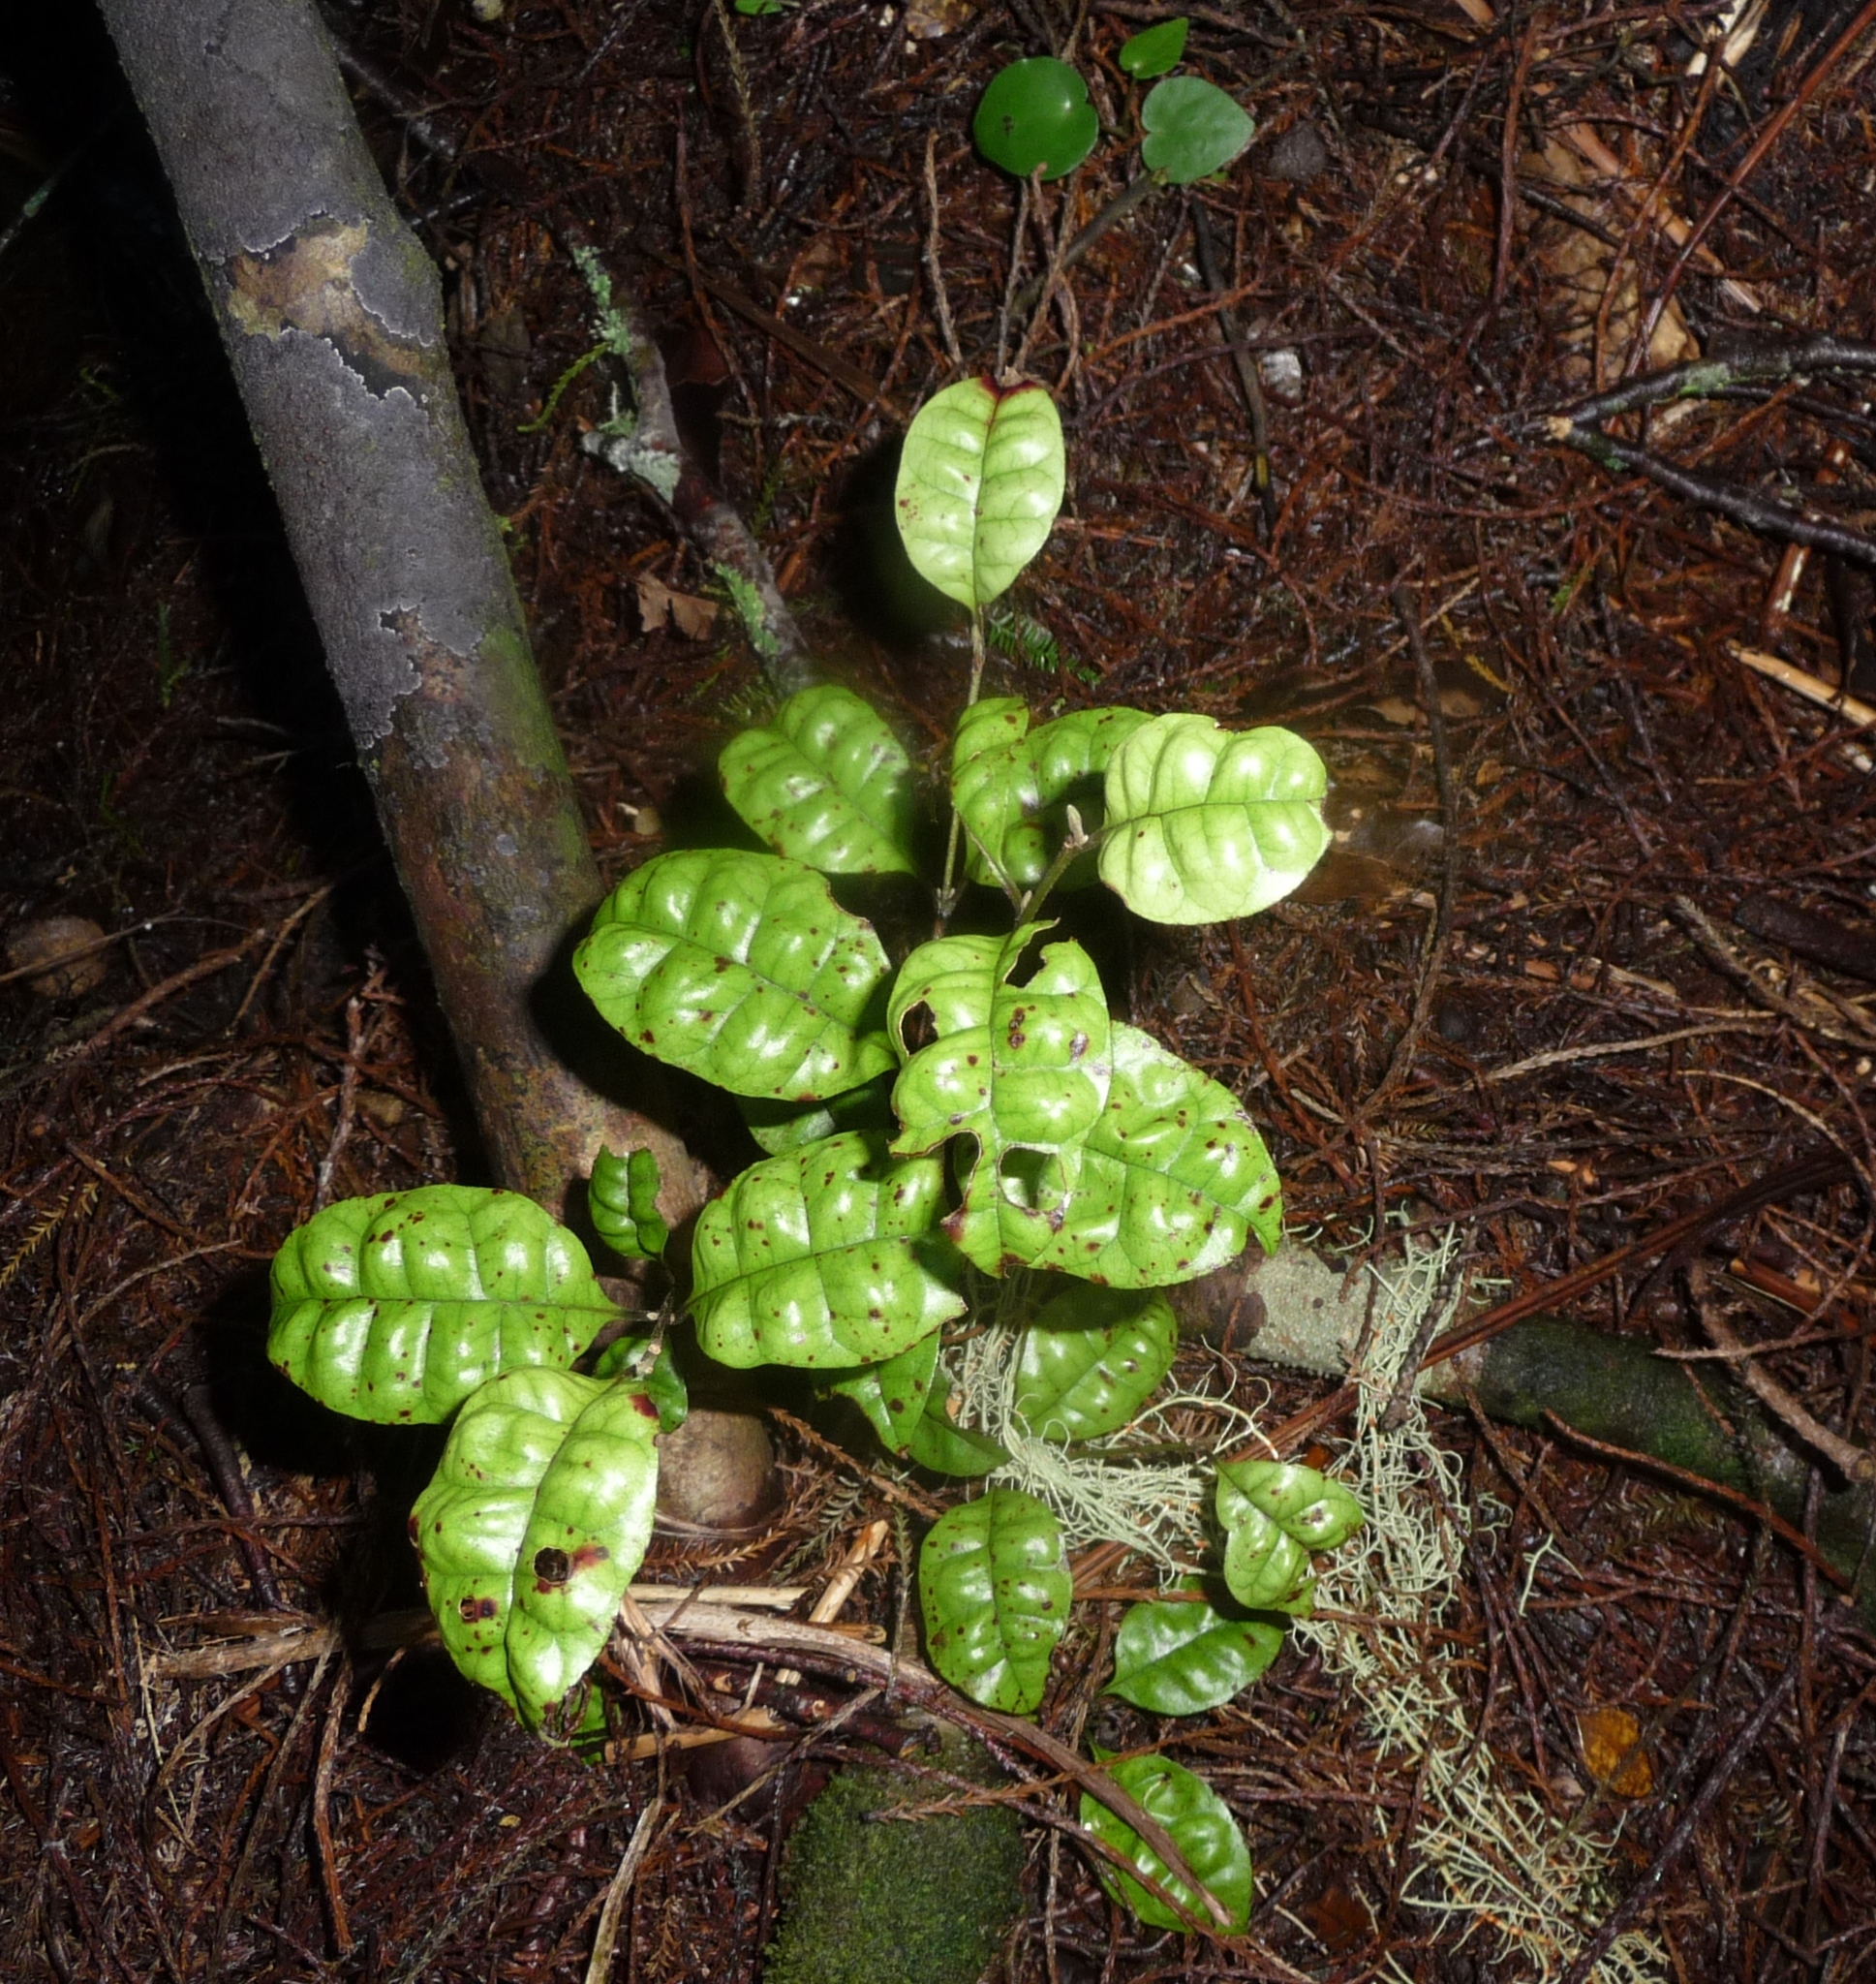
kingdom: Plantae
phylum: Tracheophyta
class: Magnoliopsida
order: Myrtales
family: Myrtaceae
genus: Lophomyrtus
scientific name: Lophomyrtus bullata
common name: Rama rama
